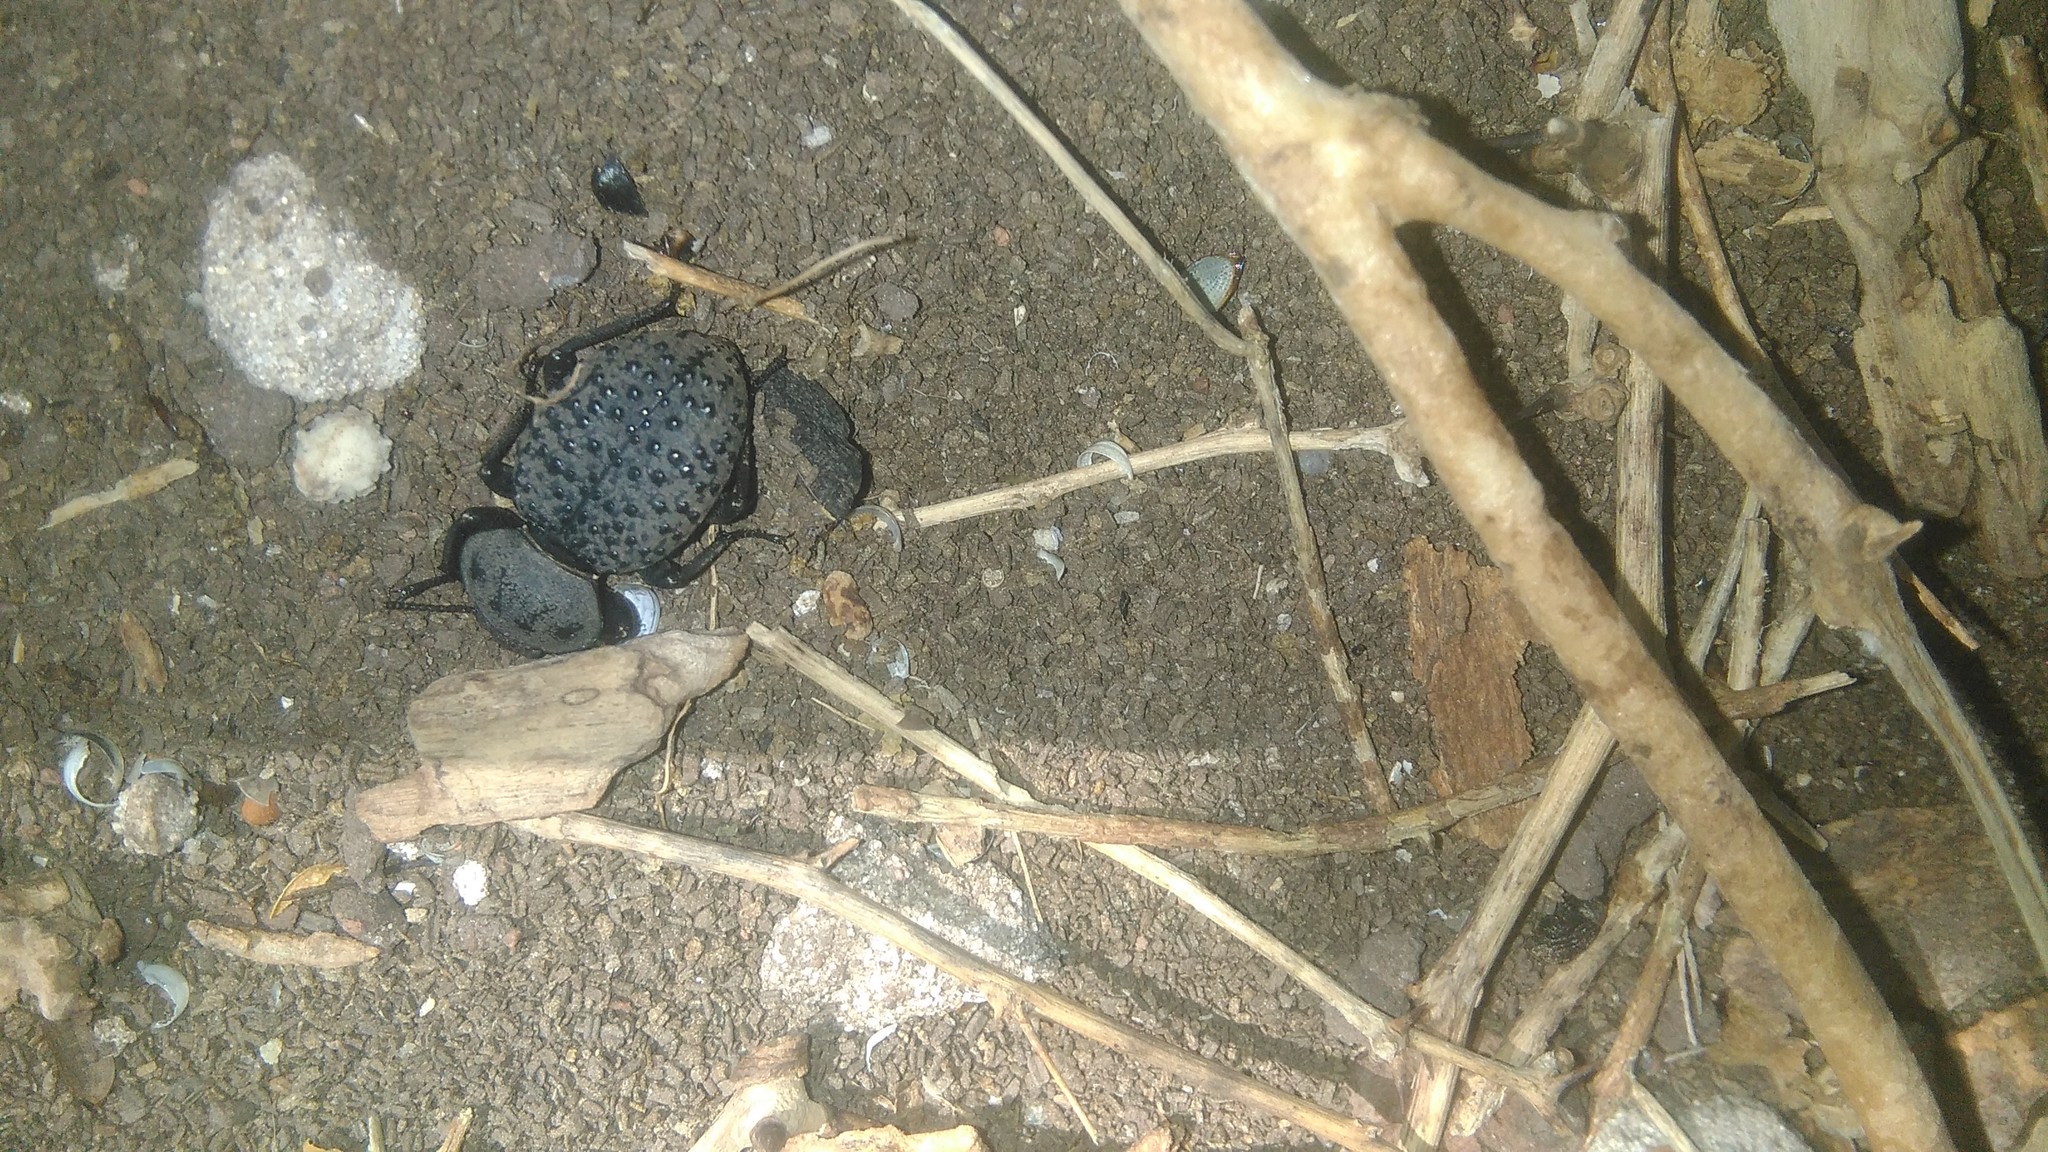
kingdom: Animalia
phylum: Arthropoda
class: Insecta
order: Coleoptera
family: Tenebrionidae
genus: Scotobius
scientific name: Scotobius pilularius
